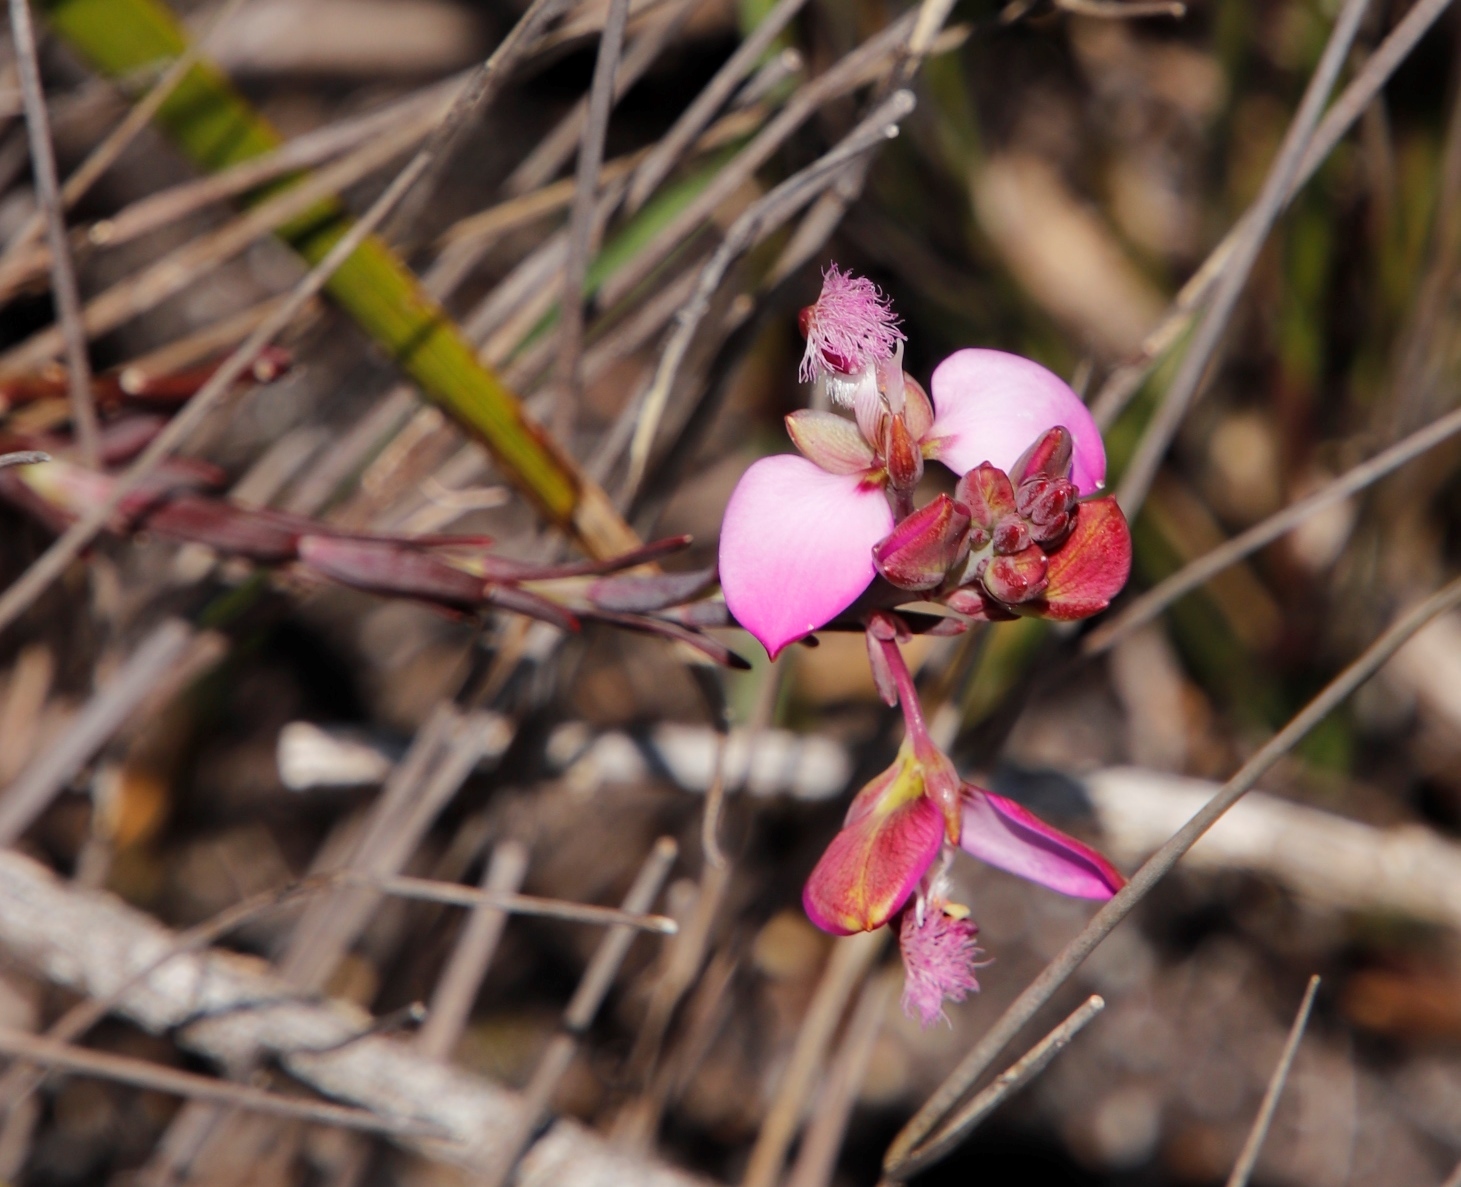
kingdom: Plantae
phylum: Tracheophyta
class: Magnoliopsida
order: Fabales
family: Polygalaceae
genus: Polygala
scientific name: Polygala bracteolata
